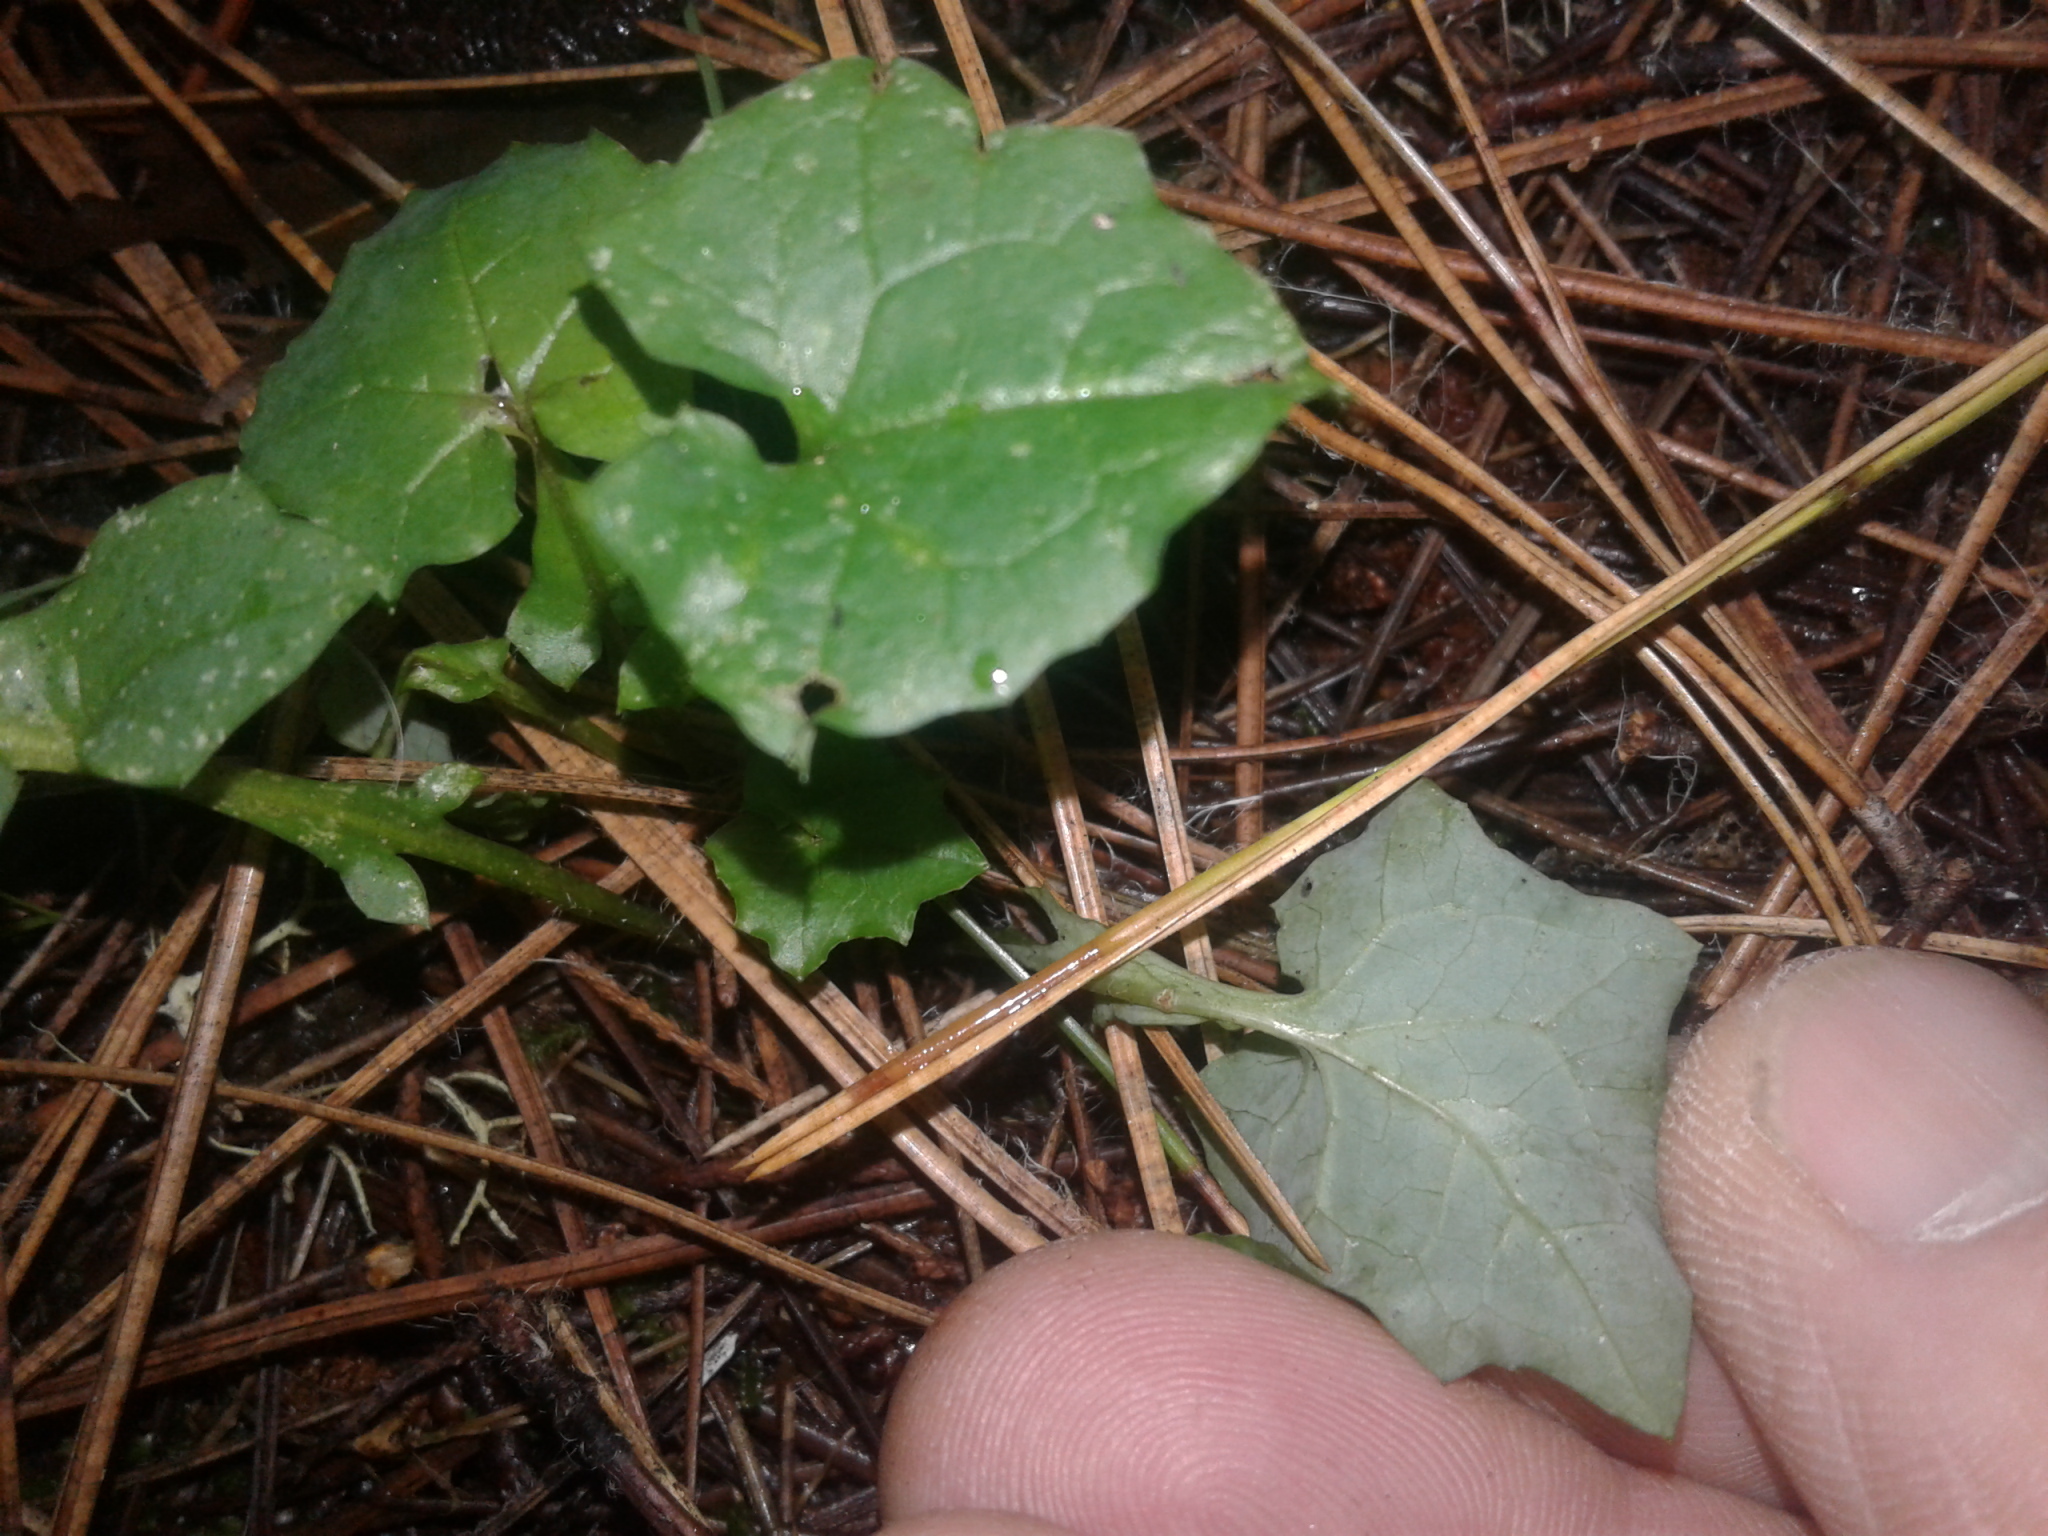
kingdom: Plantae
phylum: Tracheophyta
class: Magnoliopsida
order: Asterales
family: Asteraceae
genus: Mycelis
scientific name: Mycelis muralis
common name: Wall lettuce
